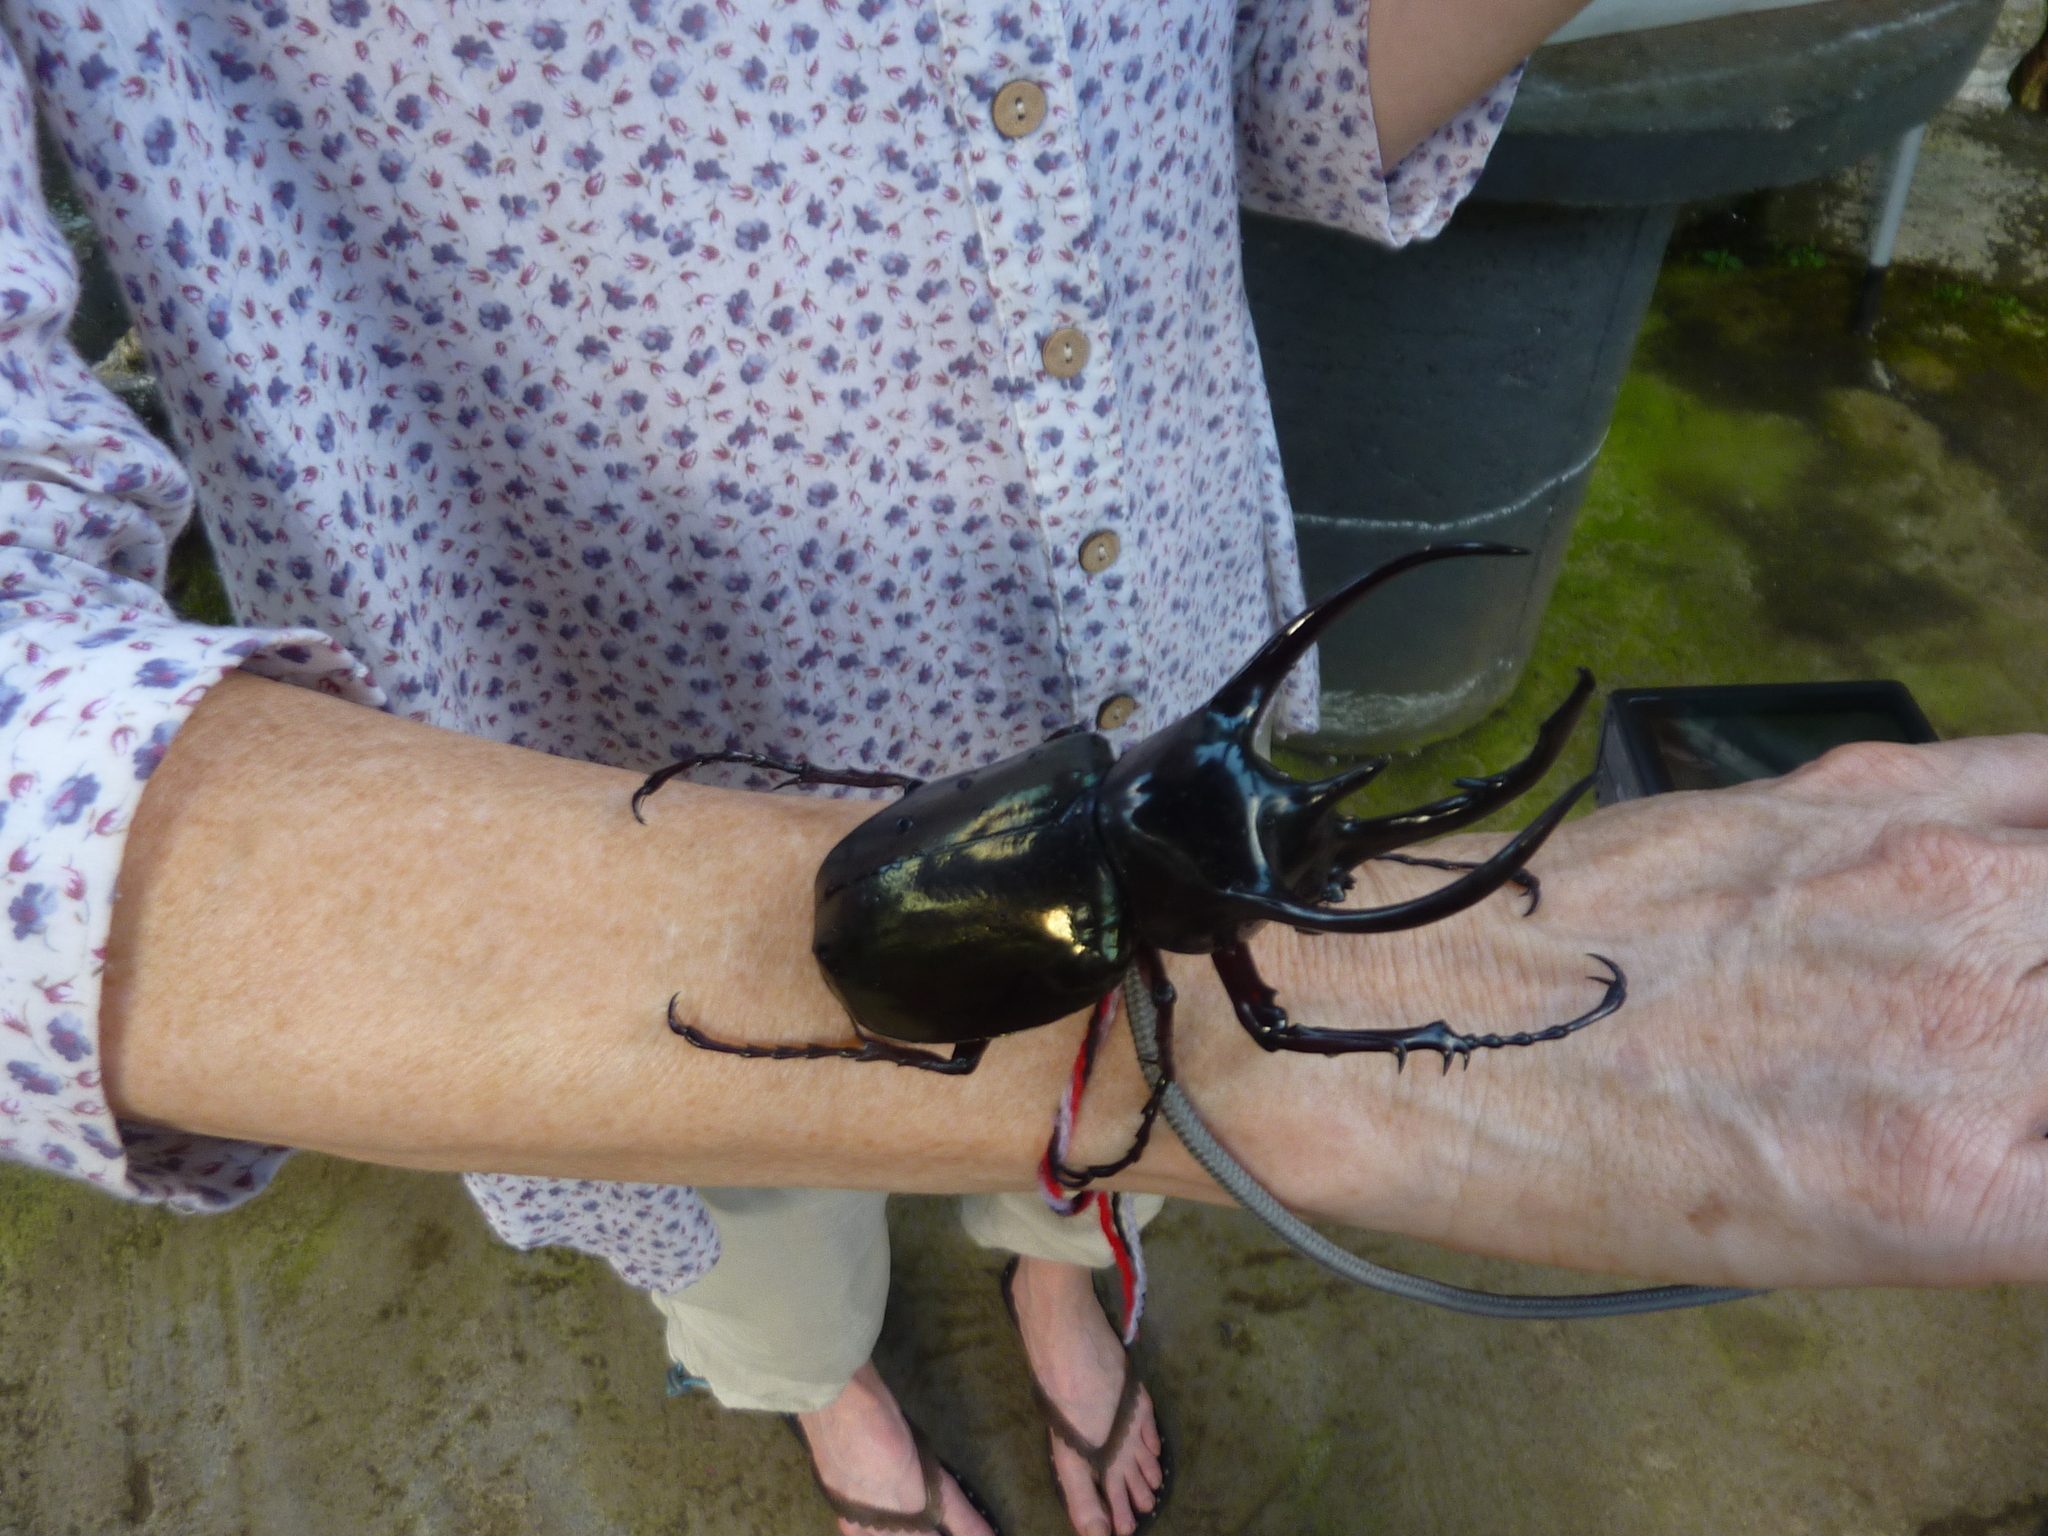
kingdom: Animalia
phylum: Arthropoda
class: Insecta
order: Coleoptera
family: Scarabaeidae
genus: Chalcosoma
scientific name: Chalcosoma chiron
